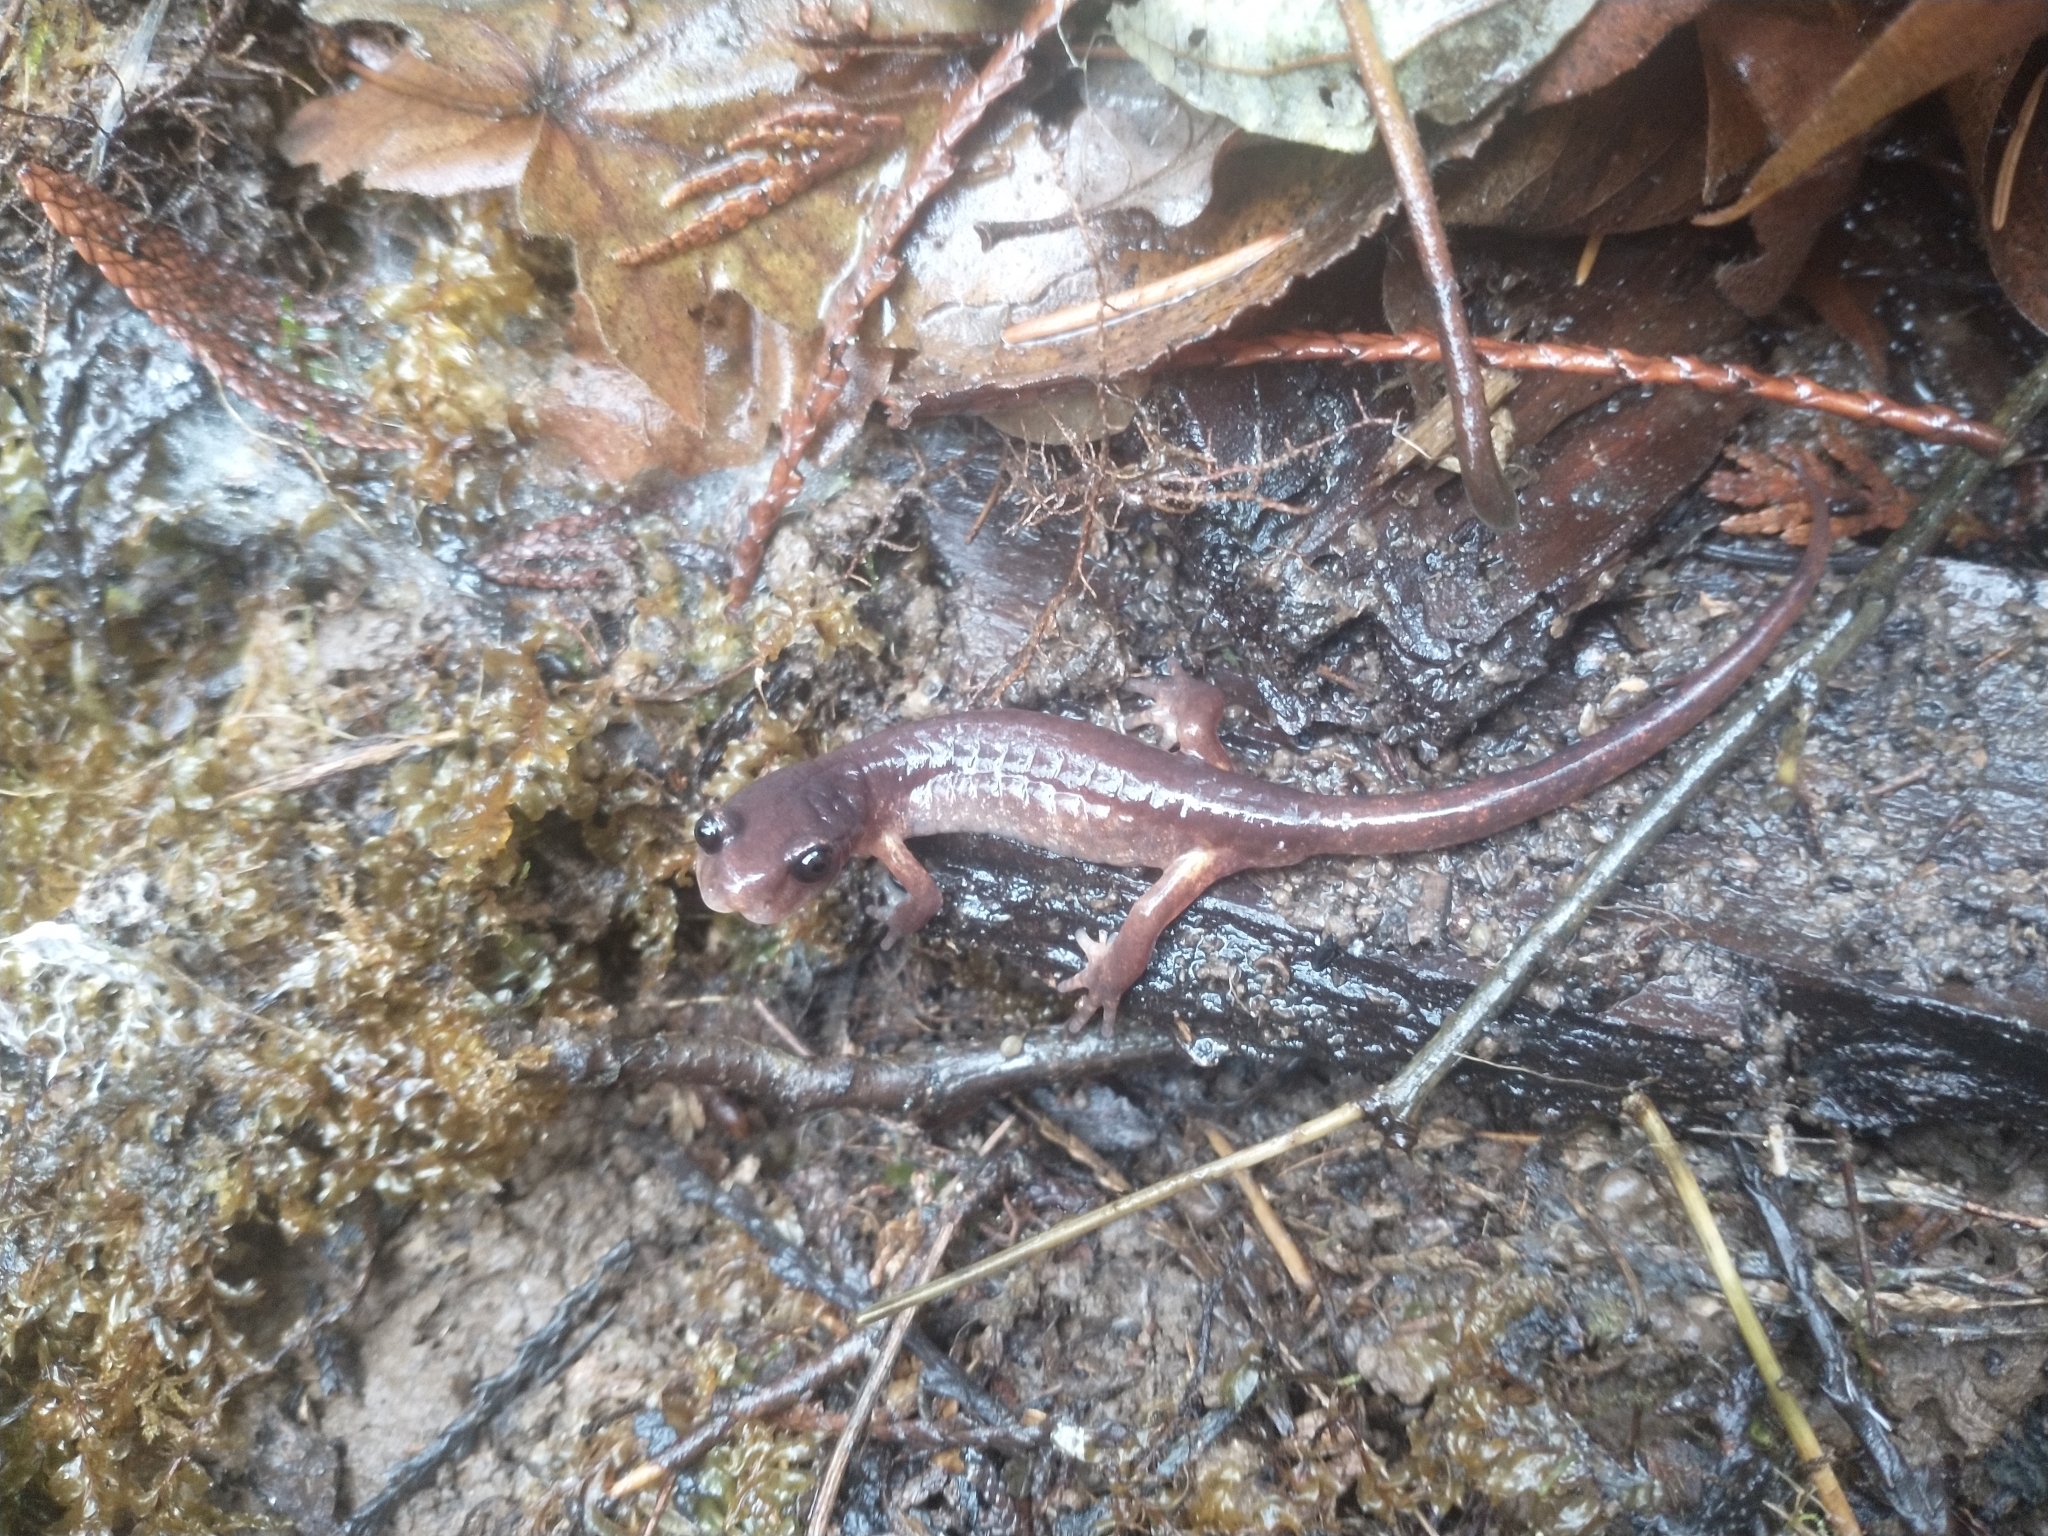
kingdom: Animalia
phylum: Chordata
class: Amphibia
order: Caudata
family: Plethodontidae
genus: Ensatina
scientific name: Ensatina eschscholtzii
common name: Ensatina
